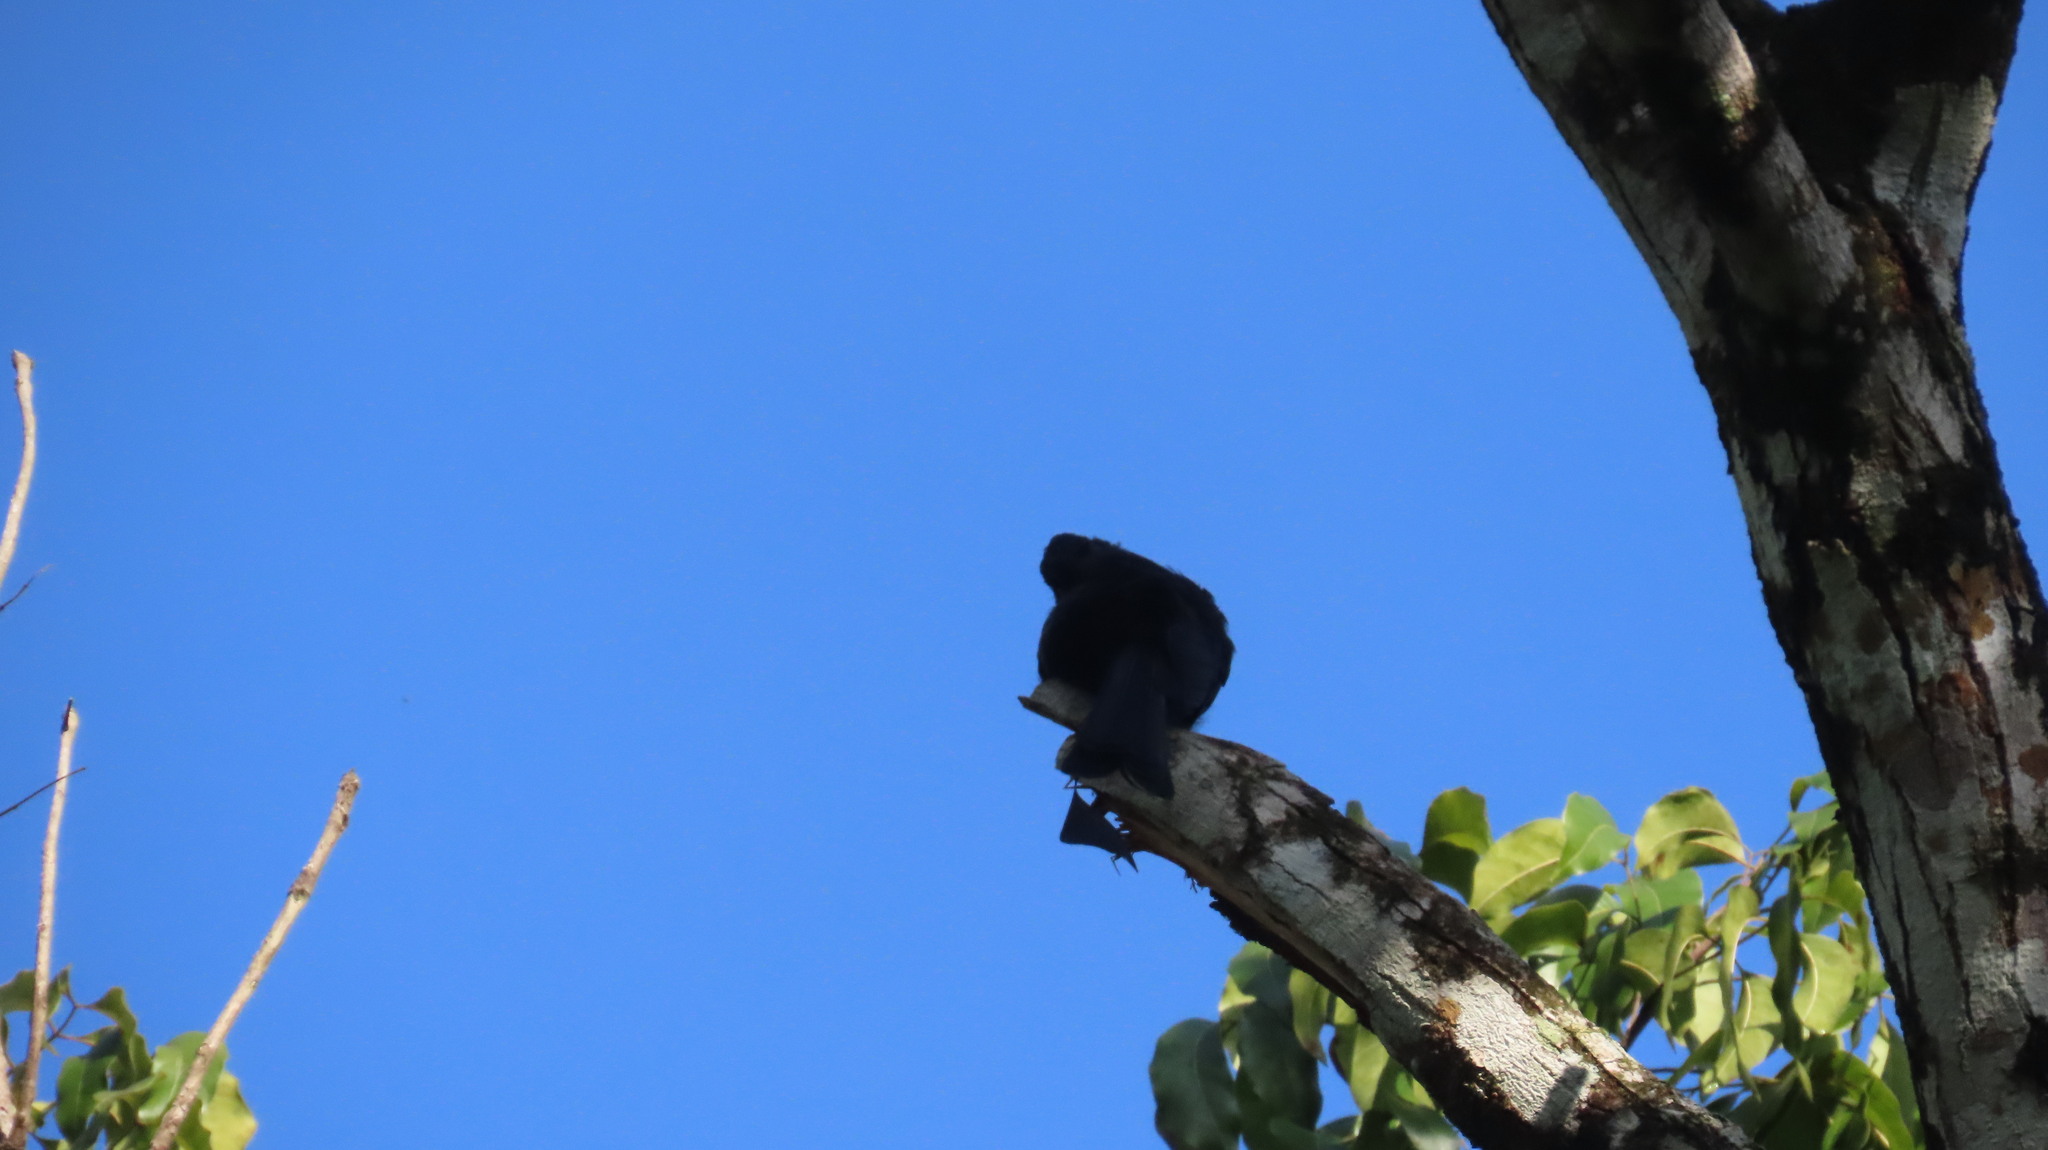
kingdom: Animalia
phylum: Chordata
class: Aves
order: Passeriformes
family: Dicruridae
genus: Dicrurus
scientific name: Dicrurus paradiseus
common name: Greater racket-tailed drongo
